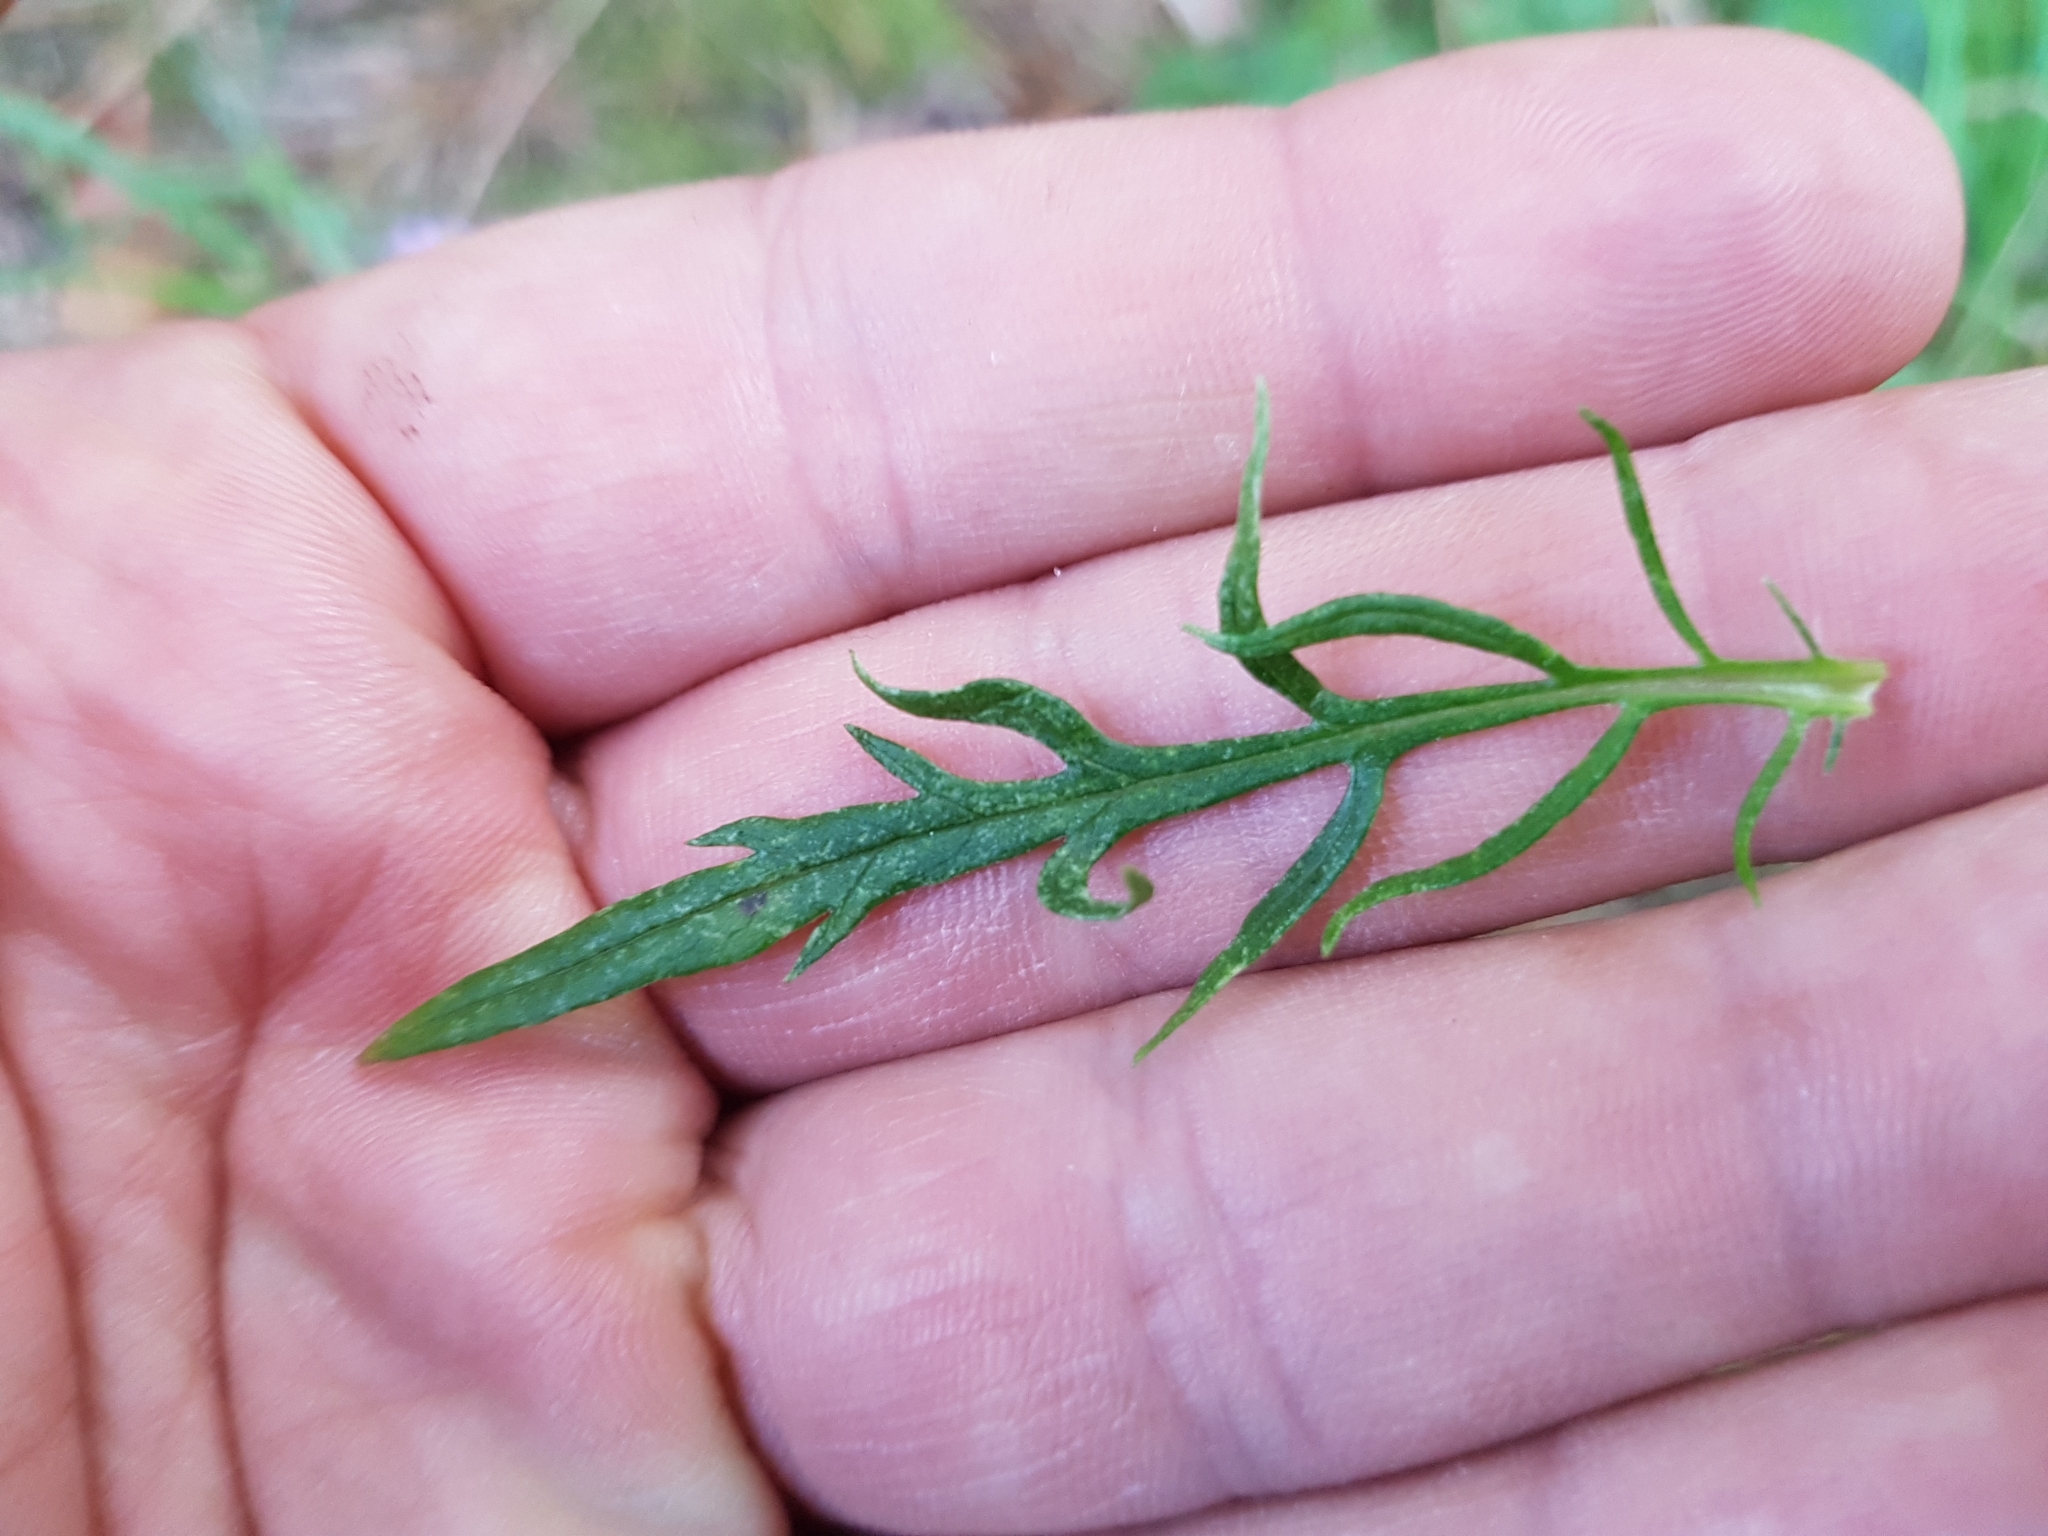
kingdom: Plantae
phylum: Tracheophyta
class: Magnoliopsida
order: Dipsacales
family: Caprifoliaceae
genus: Scabiosa
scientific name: Scabiosa columbaria
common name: Small scabious
